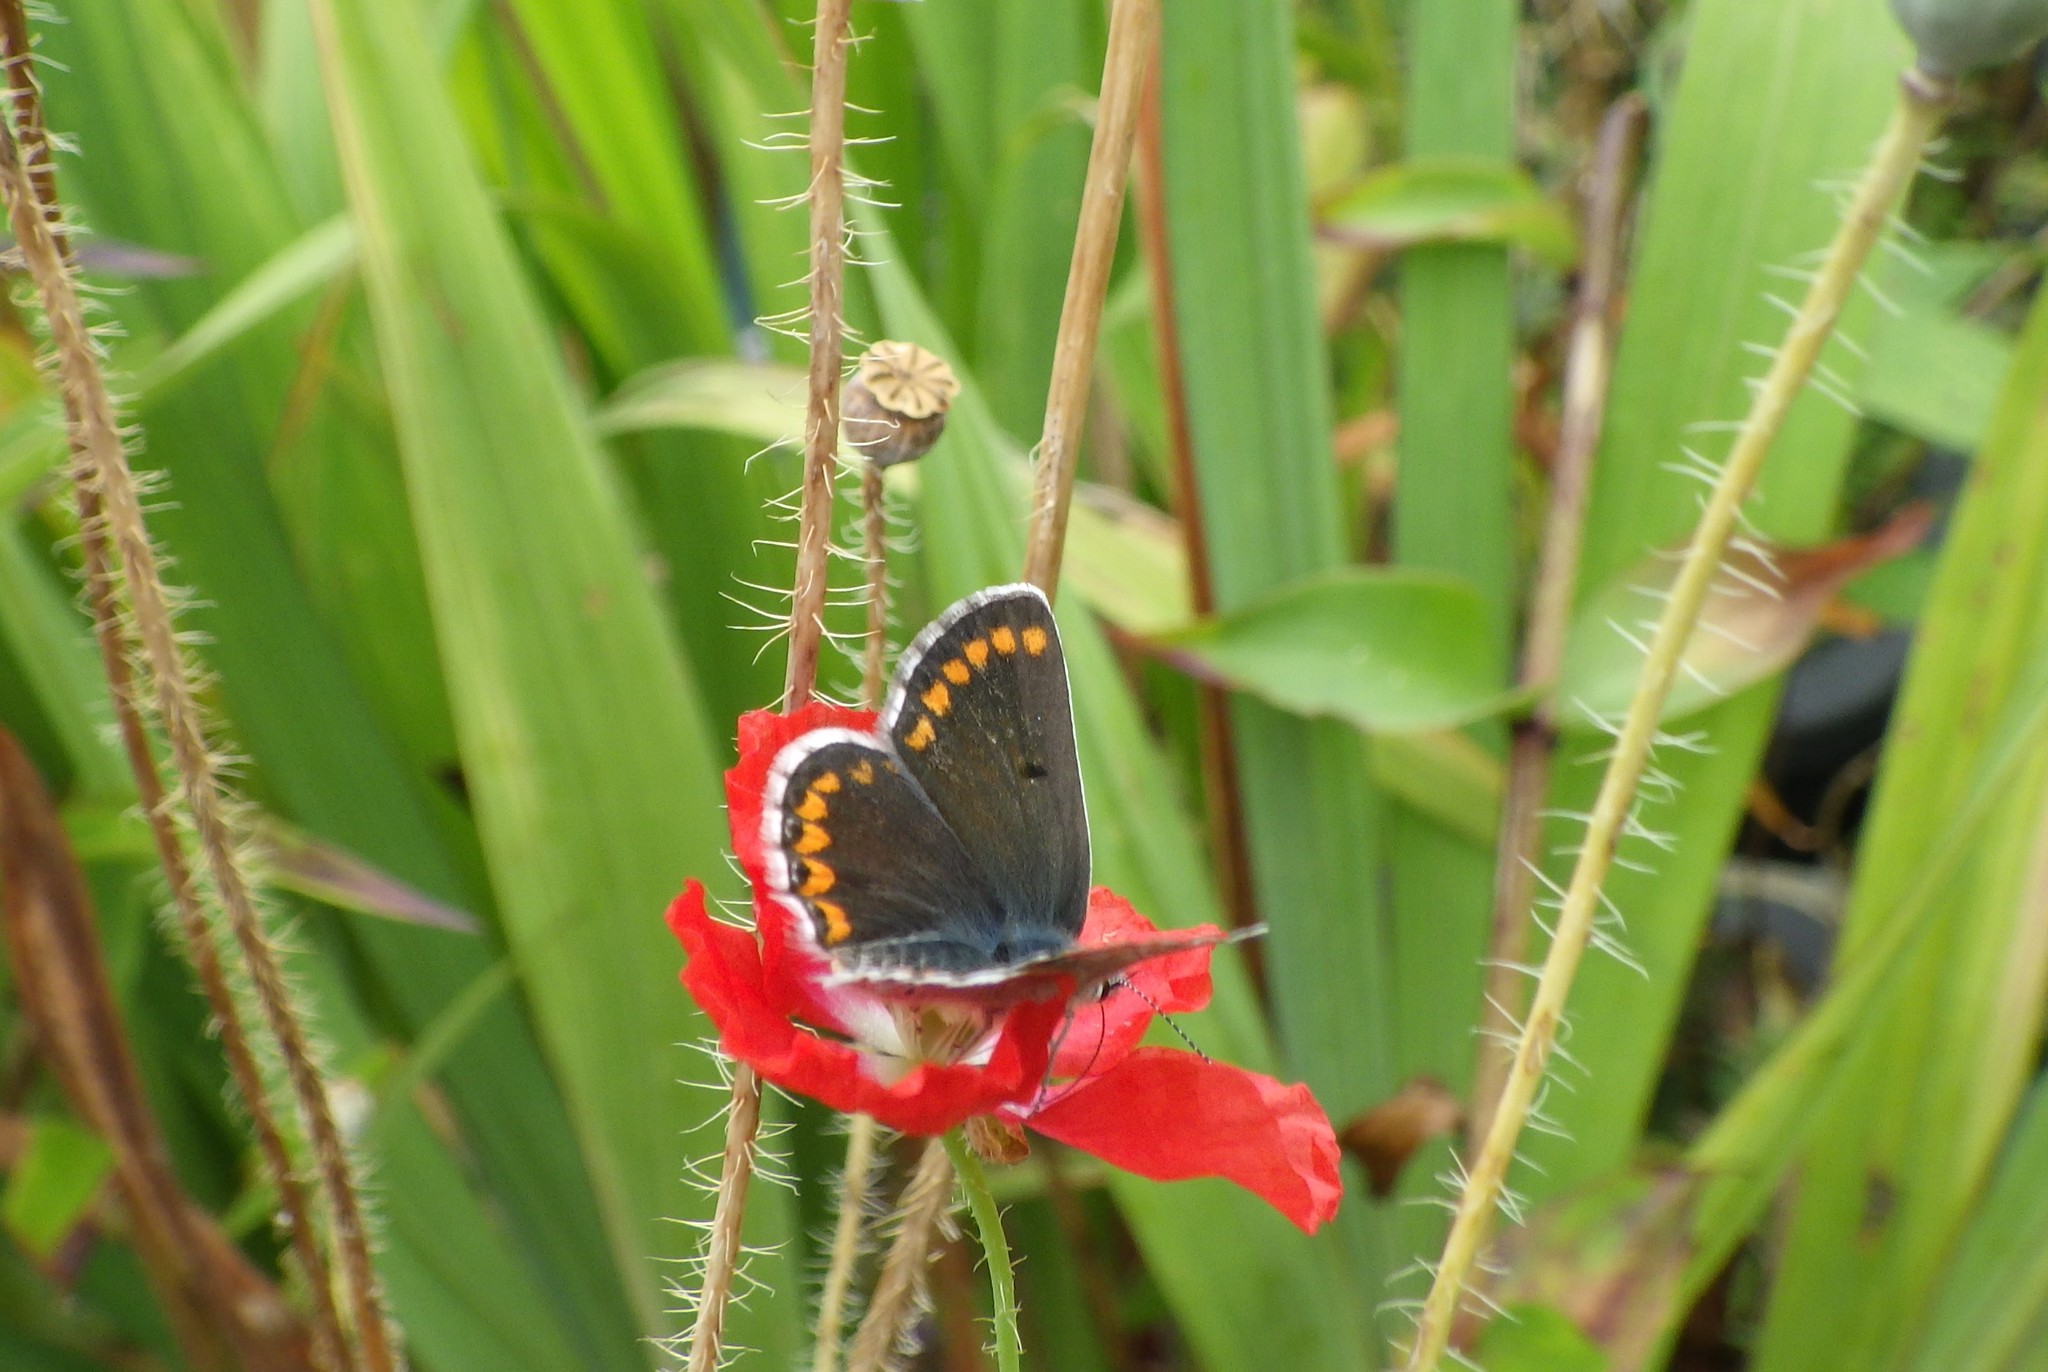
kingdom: Animalia
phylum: Arthropoda
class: Insecta
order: Lepidoptera
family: Lycaenidae
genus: Aricia
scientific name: Aricia agestis
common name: Brown argus
